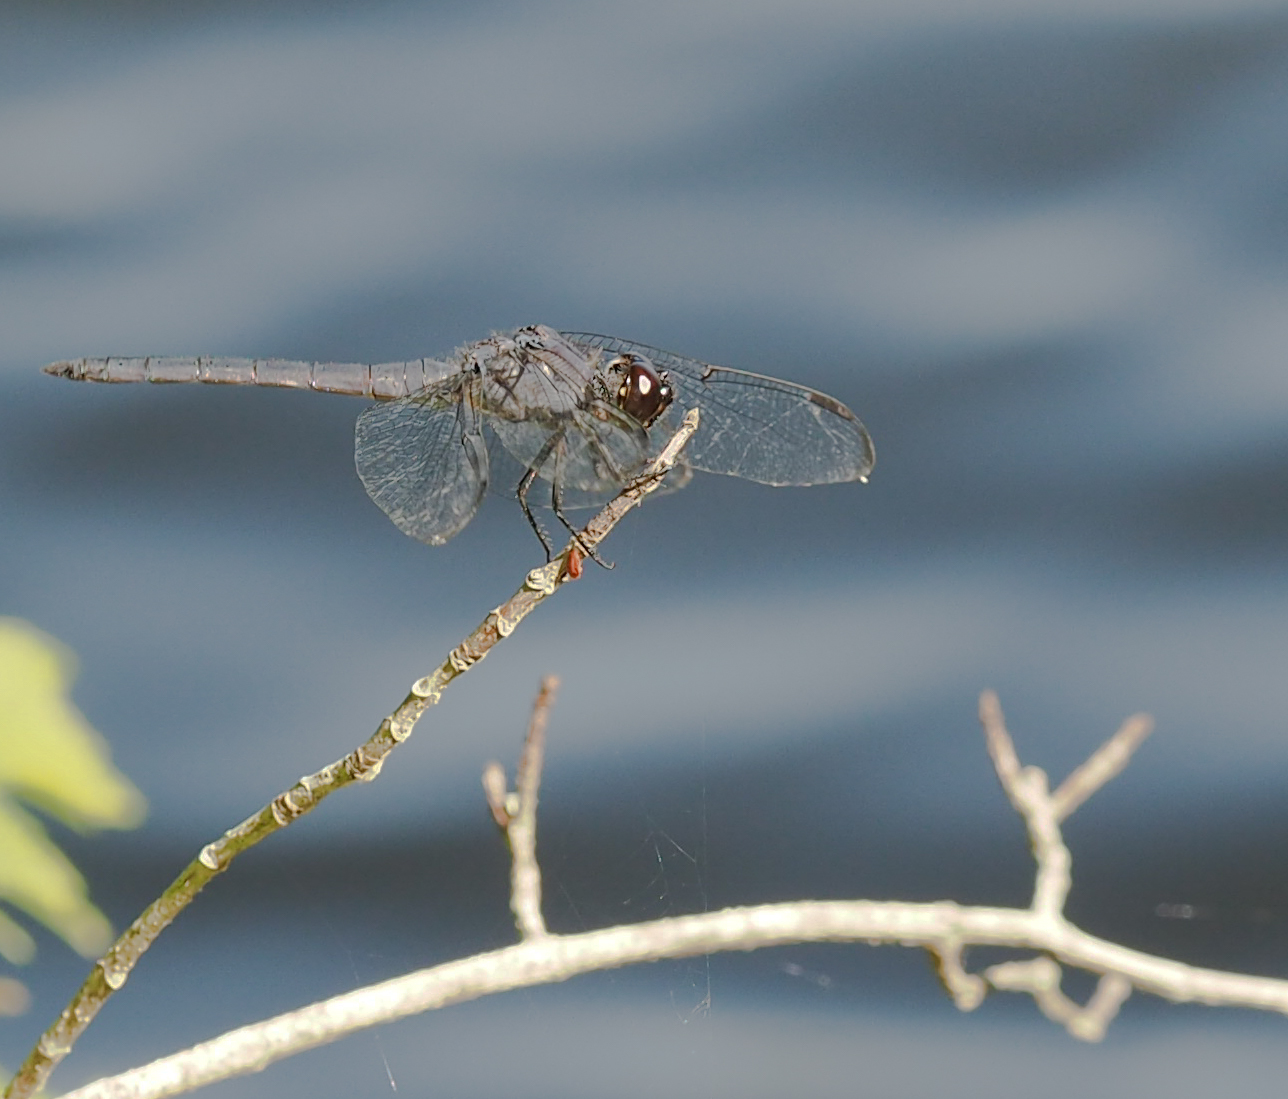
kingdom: Animalia
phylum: Arthropoda
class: Insecta
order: Odonata
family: Libellulidae
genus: Libellula
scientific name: Libellula incesta
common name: Slaty skimmer
